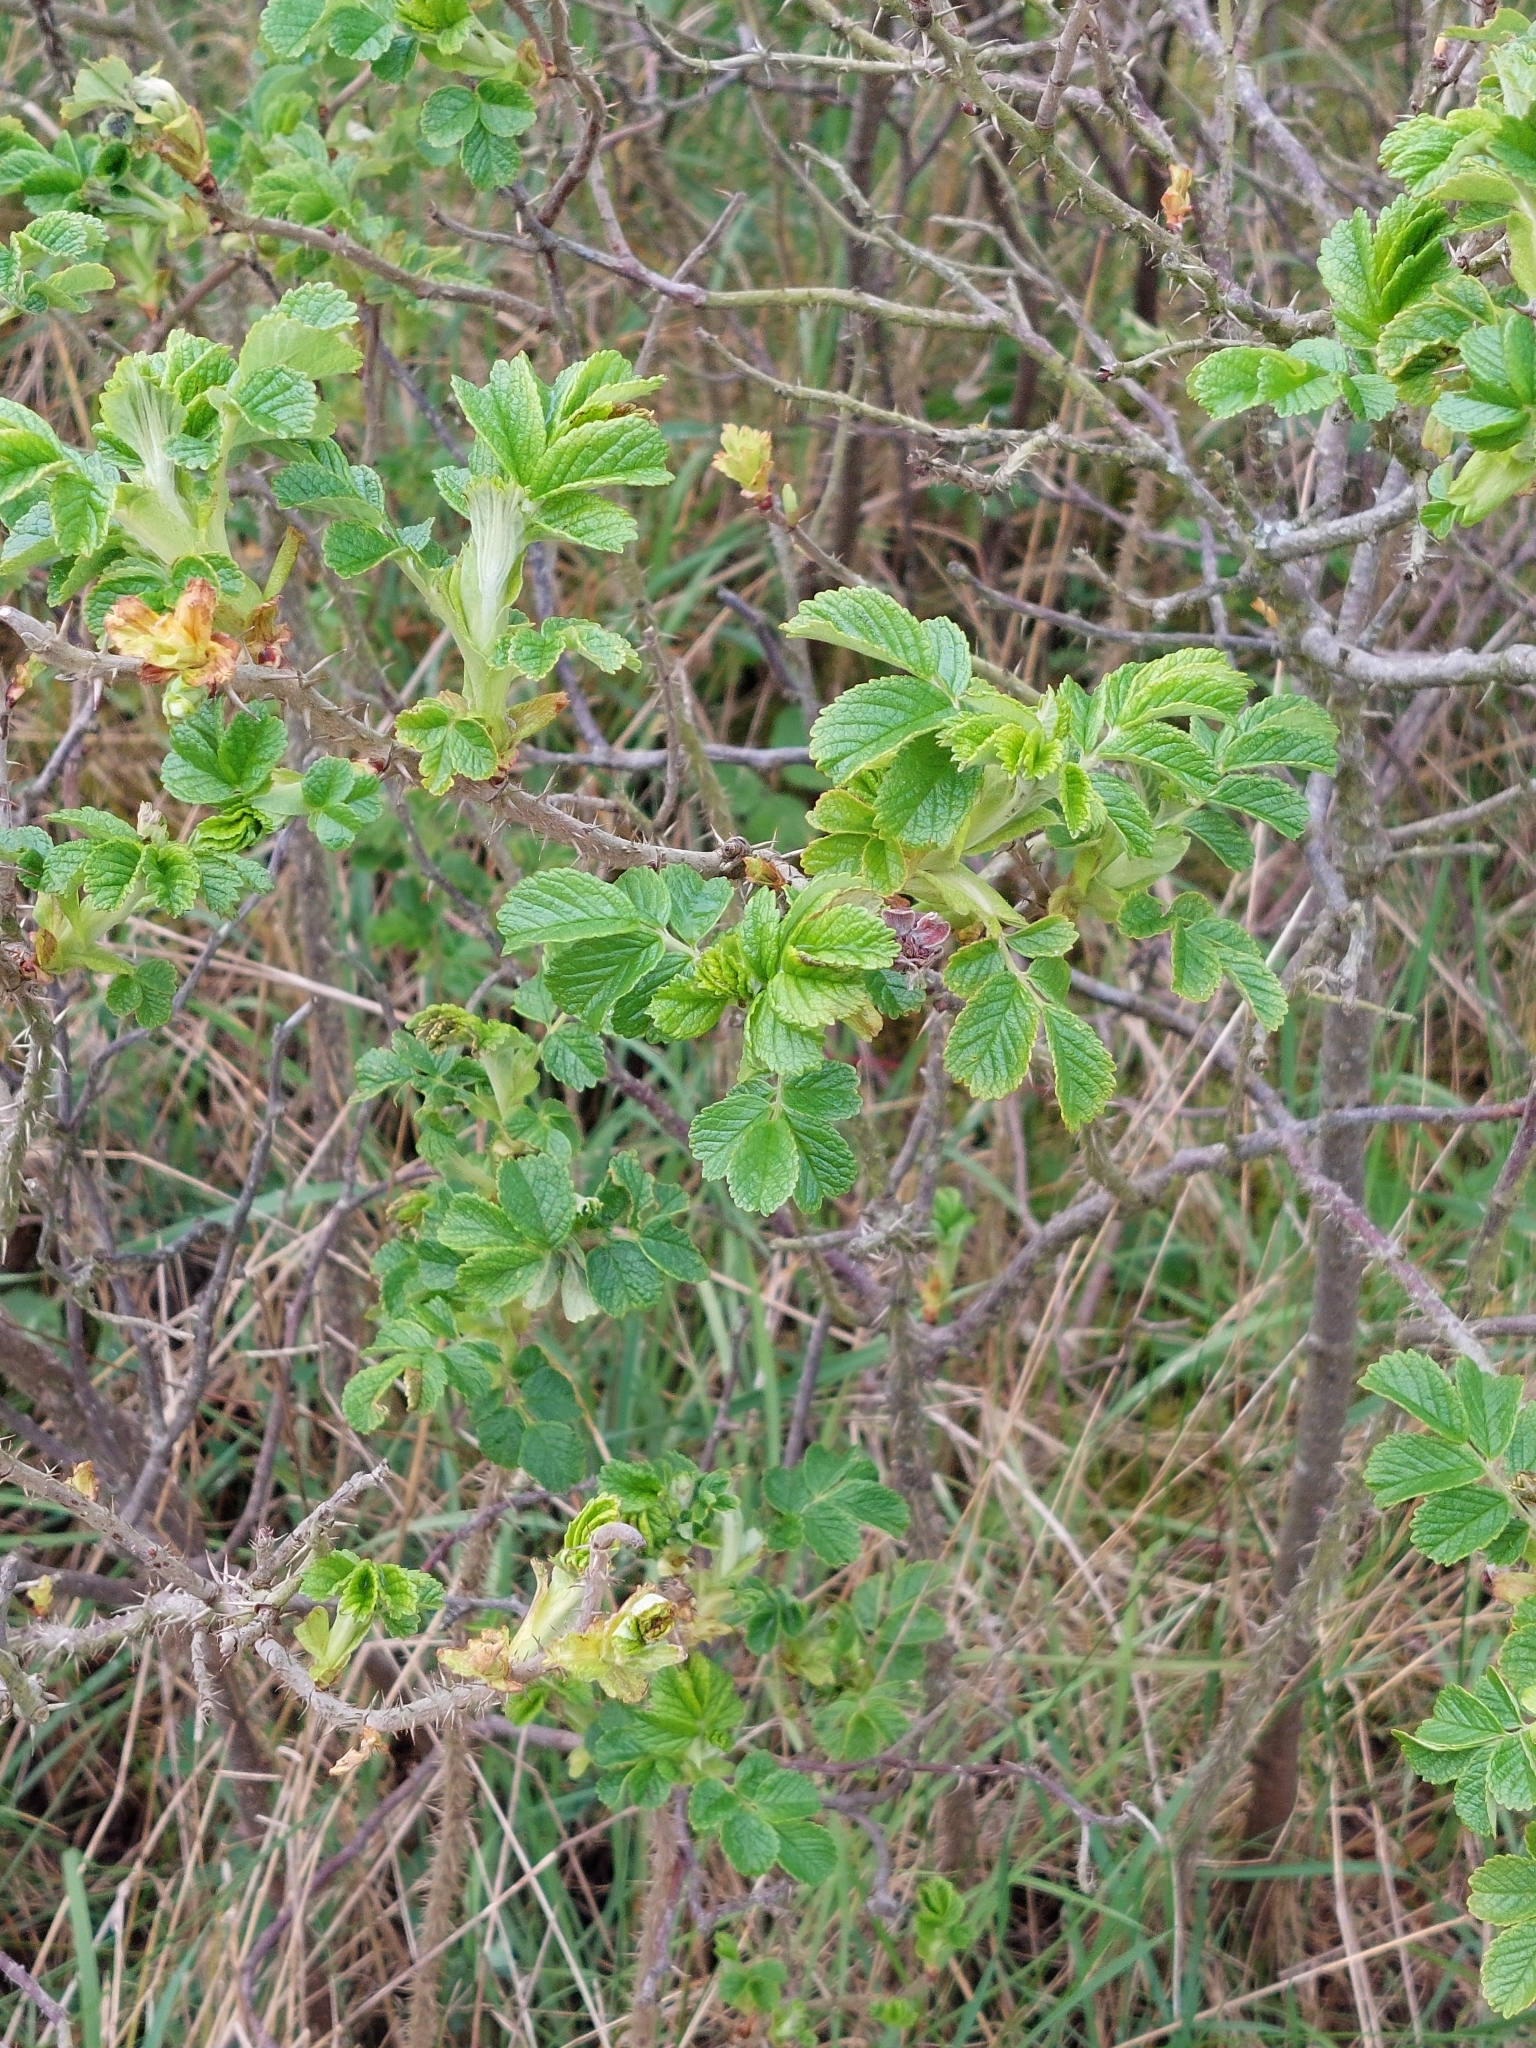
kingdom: Plantae
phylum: Tracheophyta
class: Magnoliopsida
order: Rosales
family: Rosaceae
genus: Rosa
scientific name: Rosa rugosa
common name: Japanese rose
